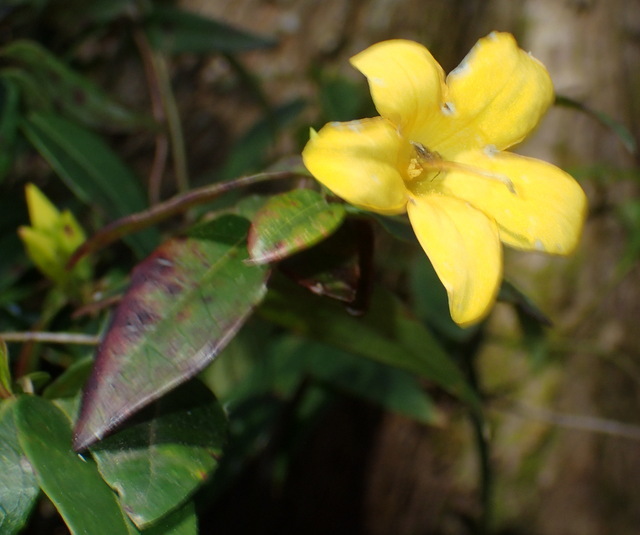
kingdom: Plantae
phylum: Tracheophyta
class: Magnoliopsida
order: Gentianales
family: Gelsemiaceae
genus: Gelsemium
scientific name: Gelsemium sempervirens
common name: Carolina-jasmine
